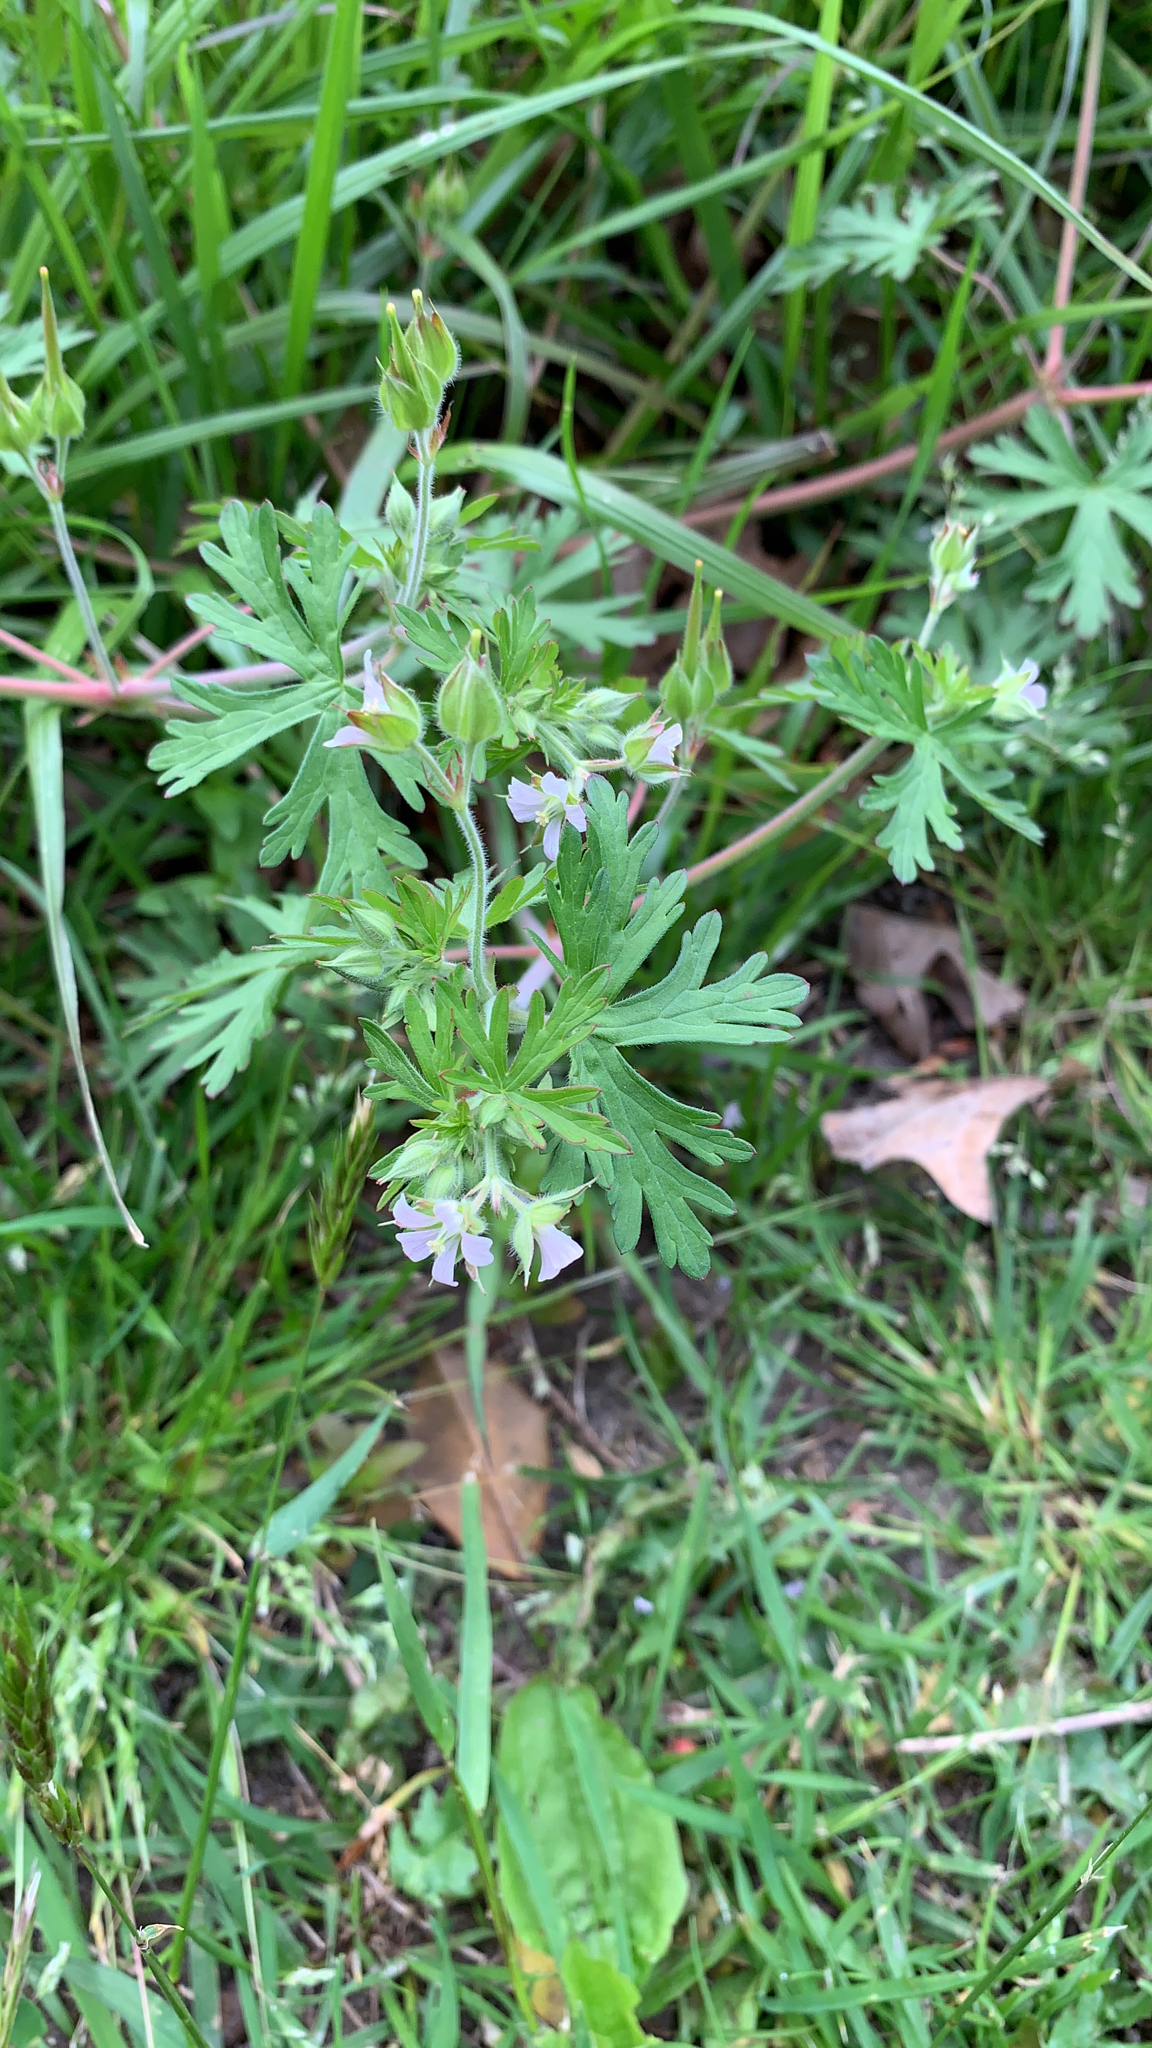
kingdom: Plantae
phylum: Tracheophyta
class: Magnoliopsida
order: Geraniales
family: Geraniaceae
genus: Geranium
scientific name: Geranium carolinianum
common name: Carolina crane's-bill
